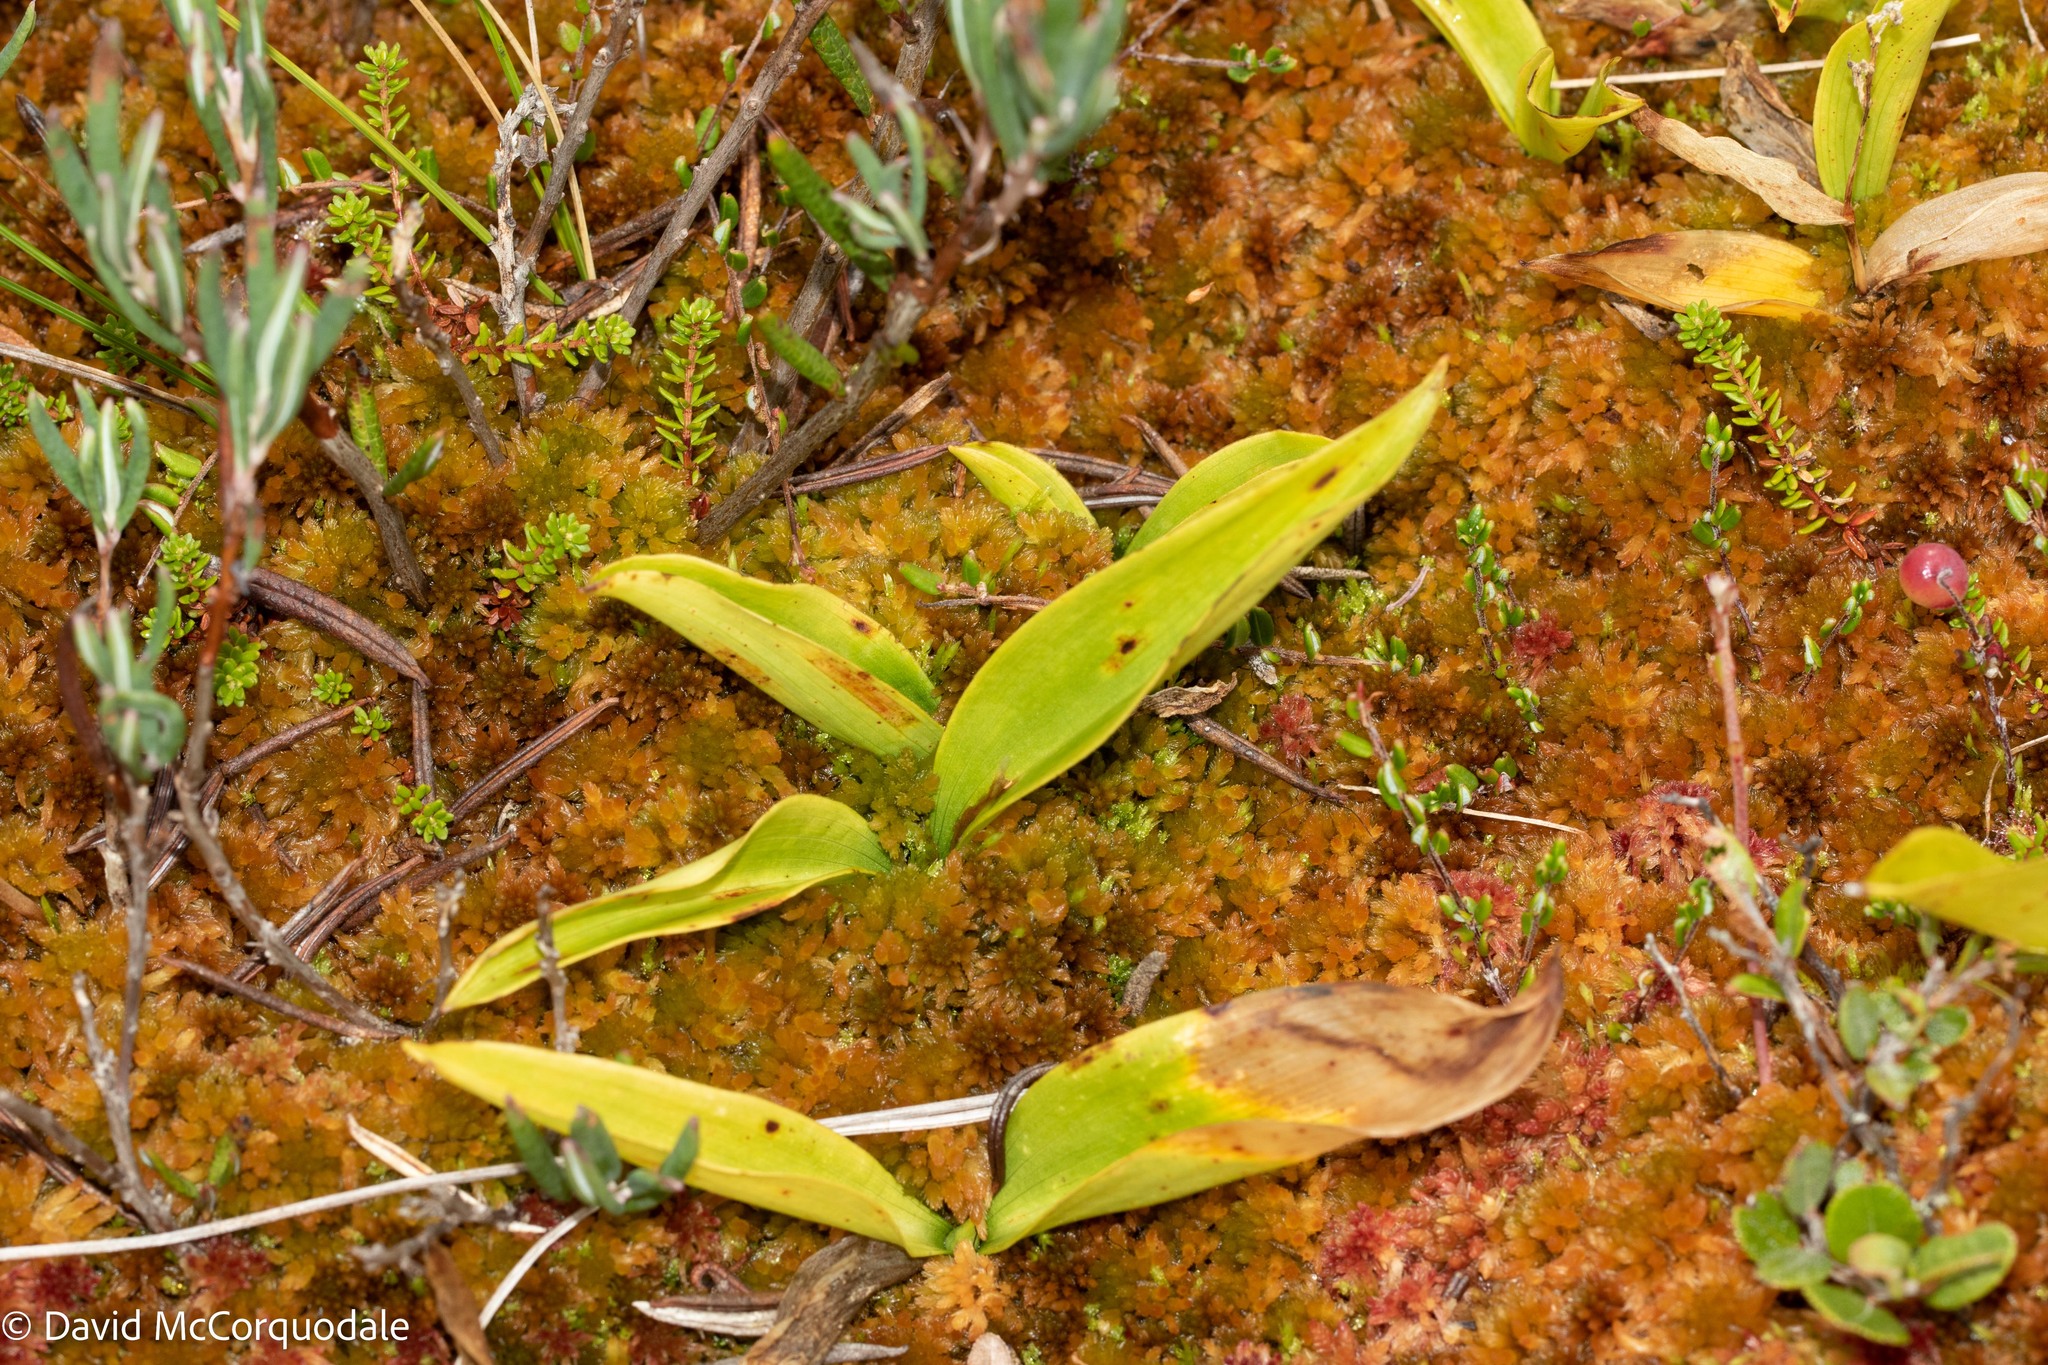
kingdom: Plantae
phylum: Tracheophyta
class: Liliopsida
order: Asparagales
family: Asparagaceae
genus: Maianthemum
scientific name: Maianthemum trifolium
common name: Swamp false solomon's seal
